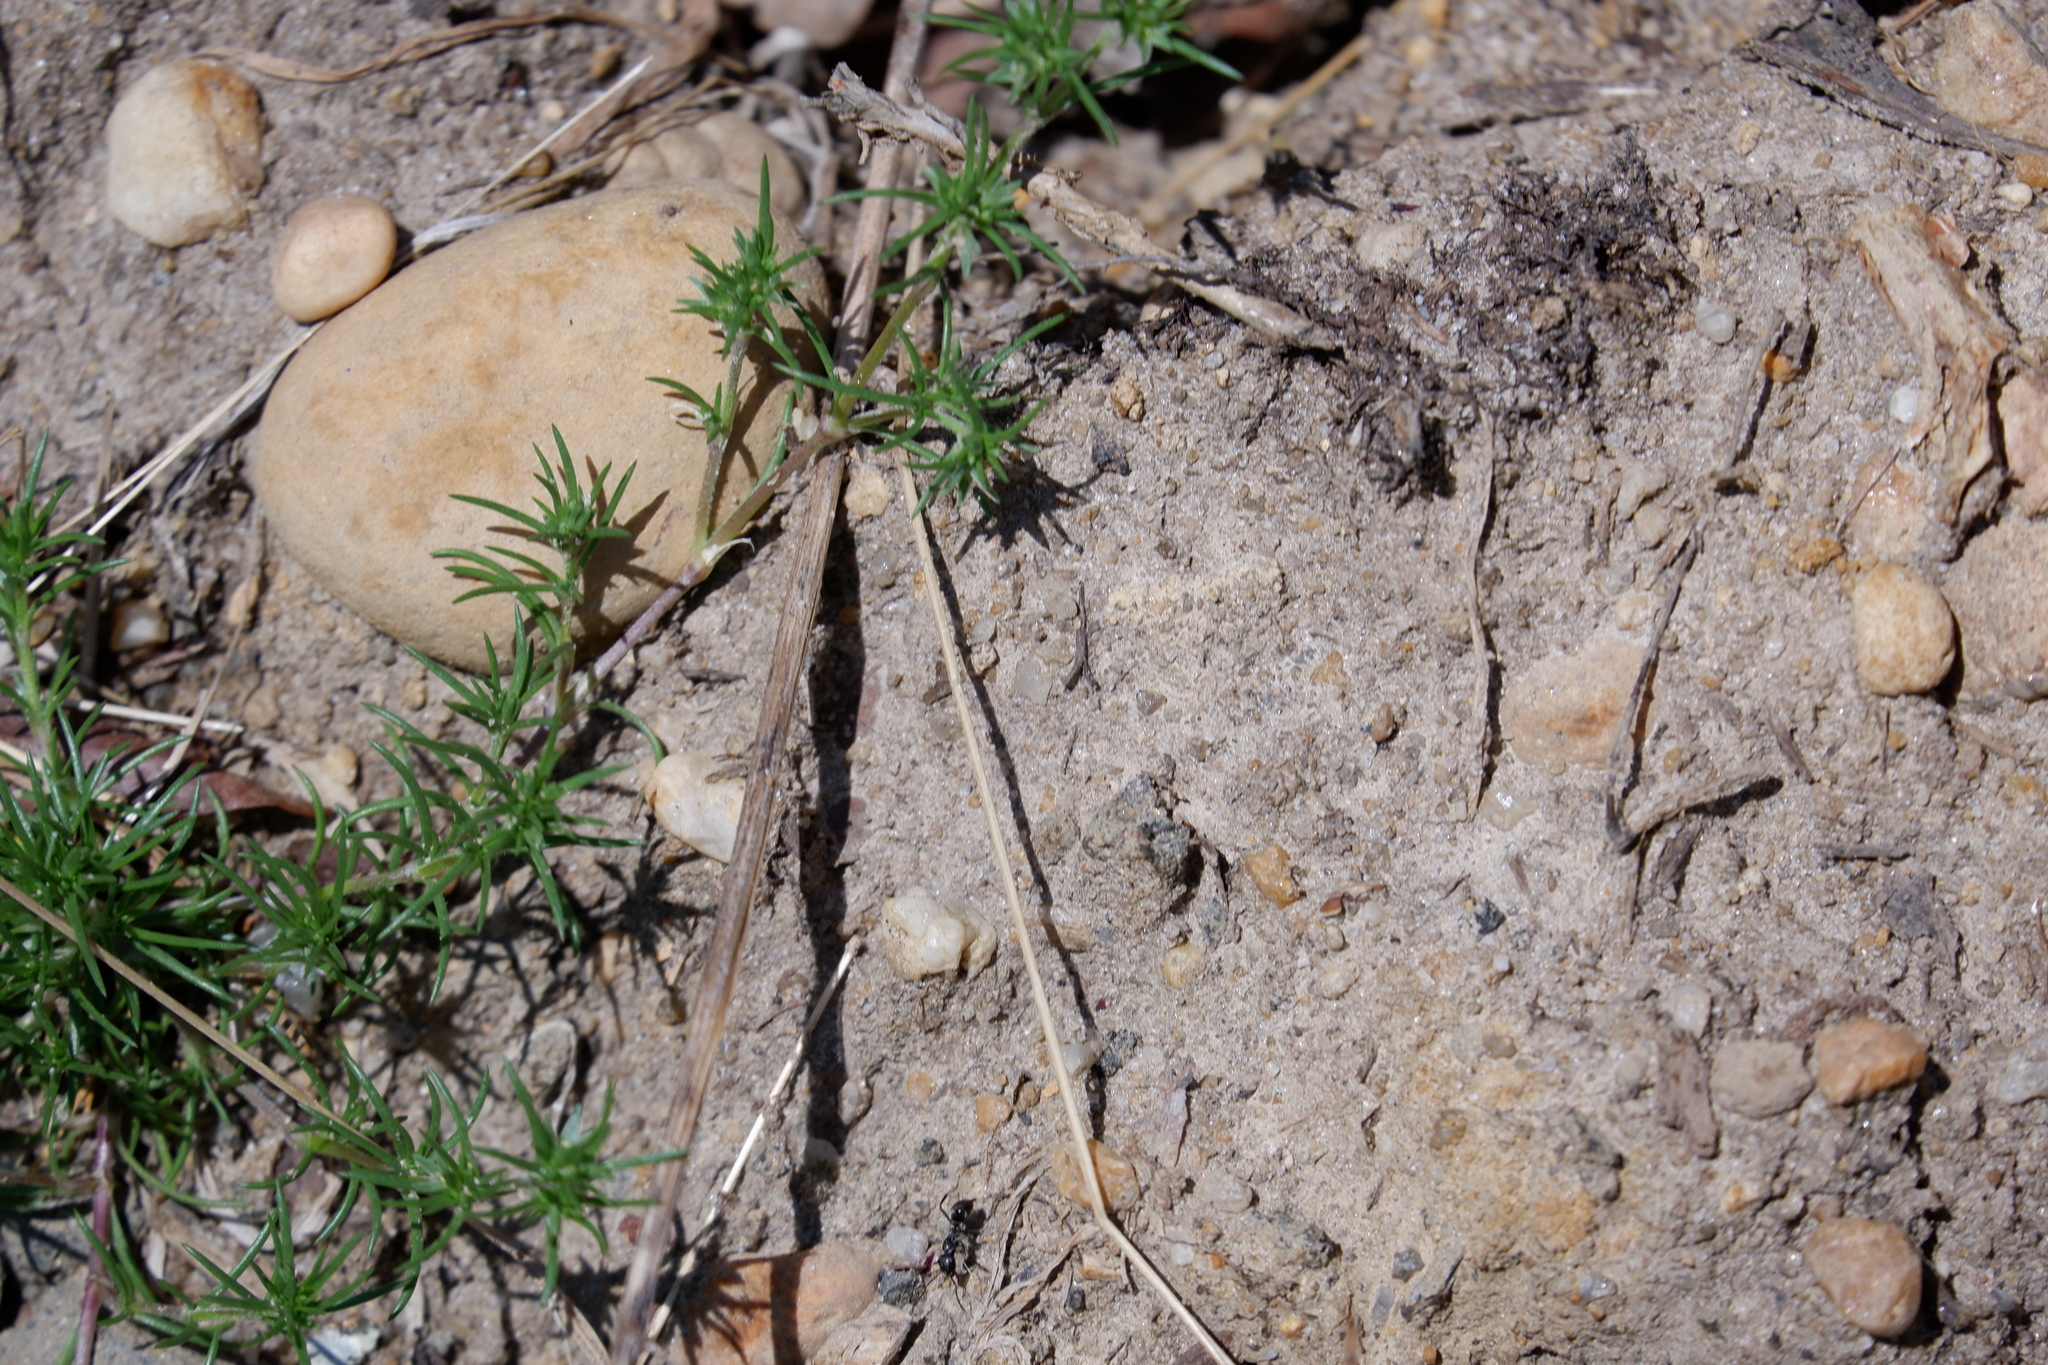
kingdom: Plantae
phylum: Tracheophyta
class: Magnoliopsida
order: Caryophyllales
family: Caryophyllaceae
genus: Scleranthus
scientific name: Scleranthus annuus
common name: Annual knawel
